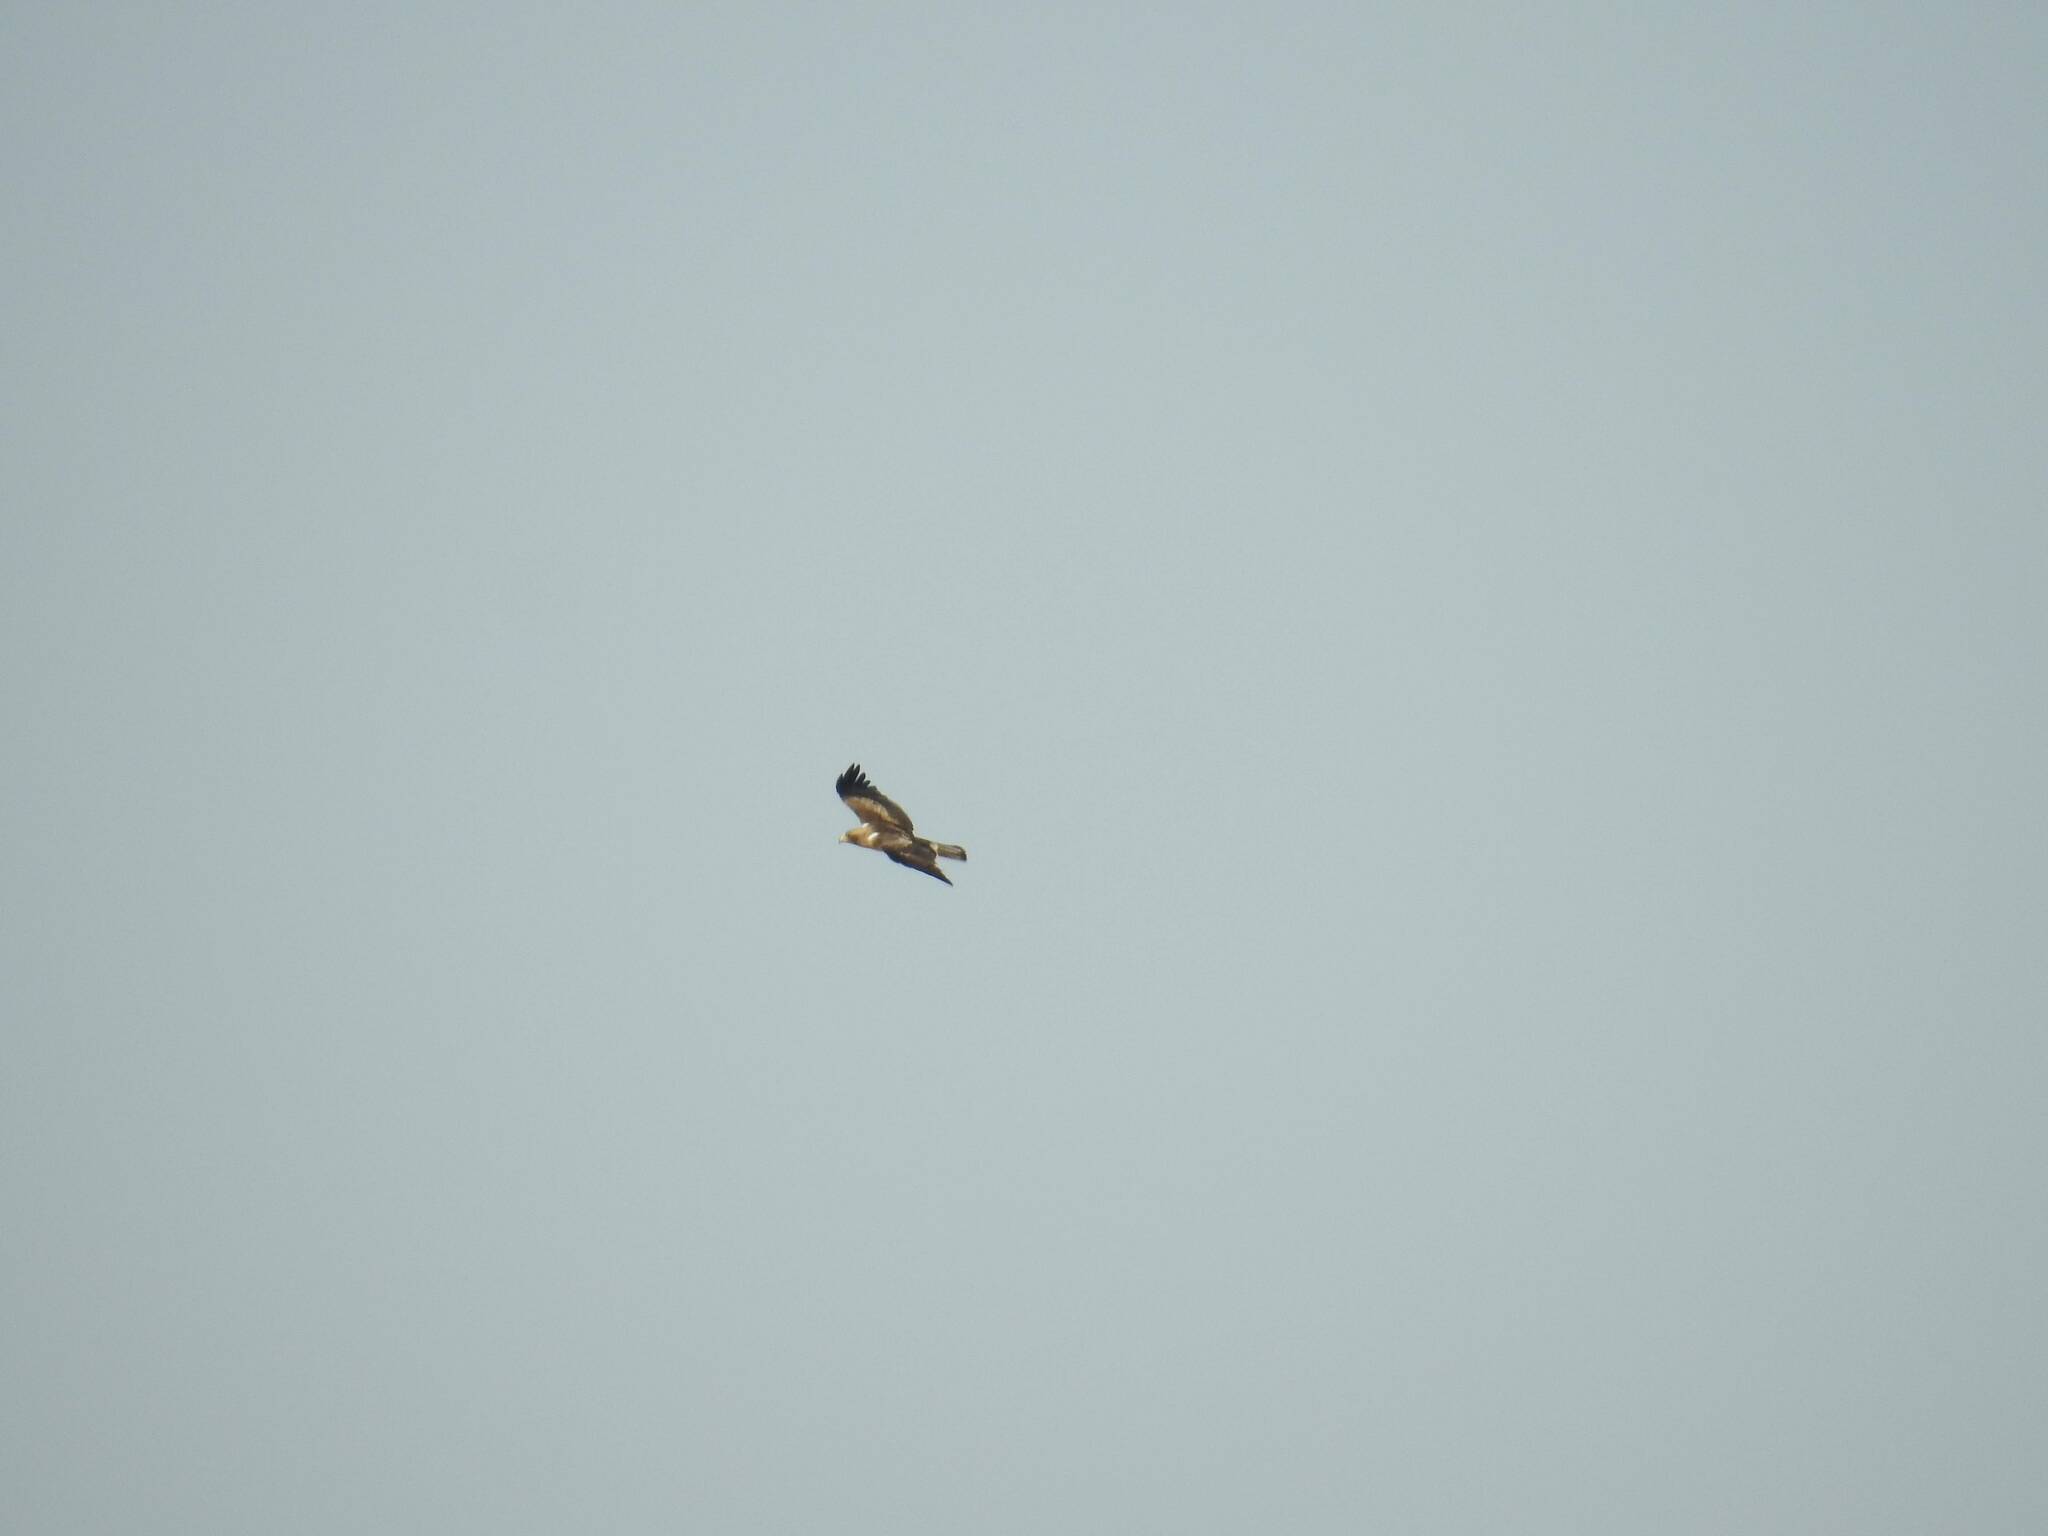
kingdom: Animalia
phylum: Chordata
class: Aves
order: Accipitriformes
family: Accipitridae
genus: Hieraaetus
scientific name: Hieraaetus pennatus
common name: Booted eagle
